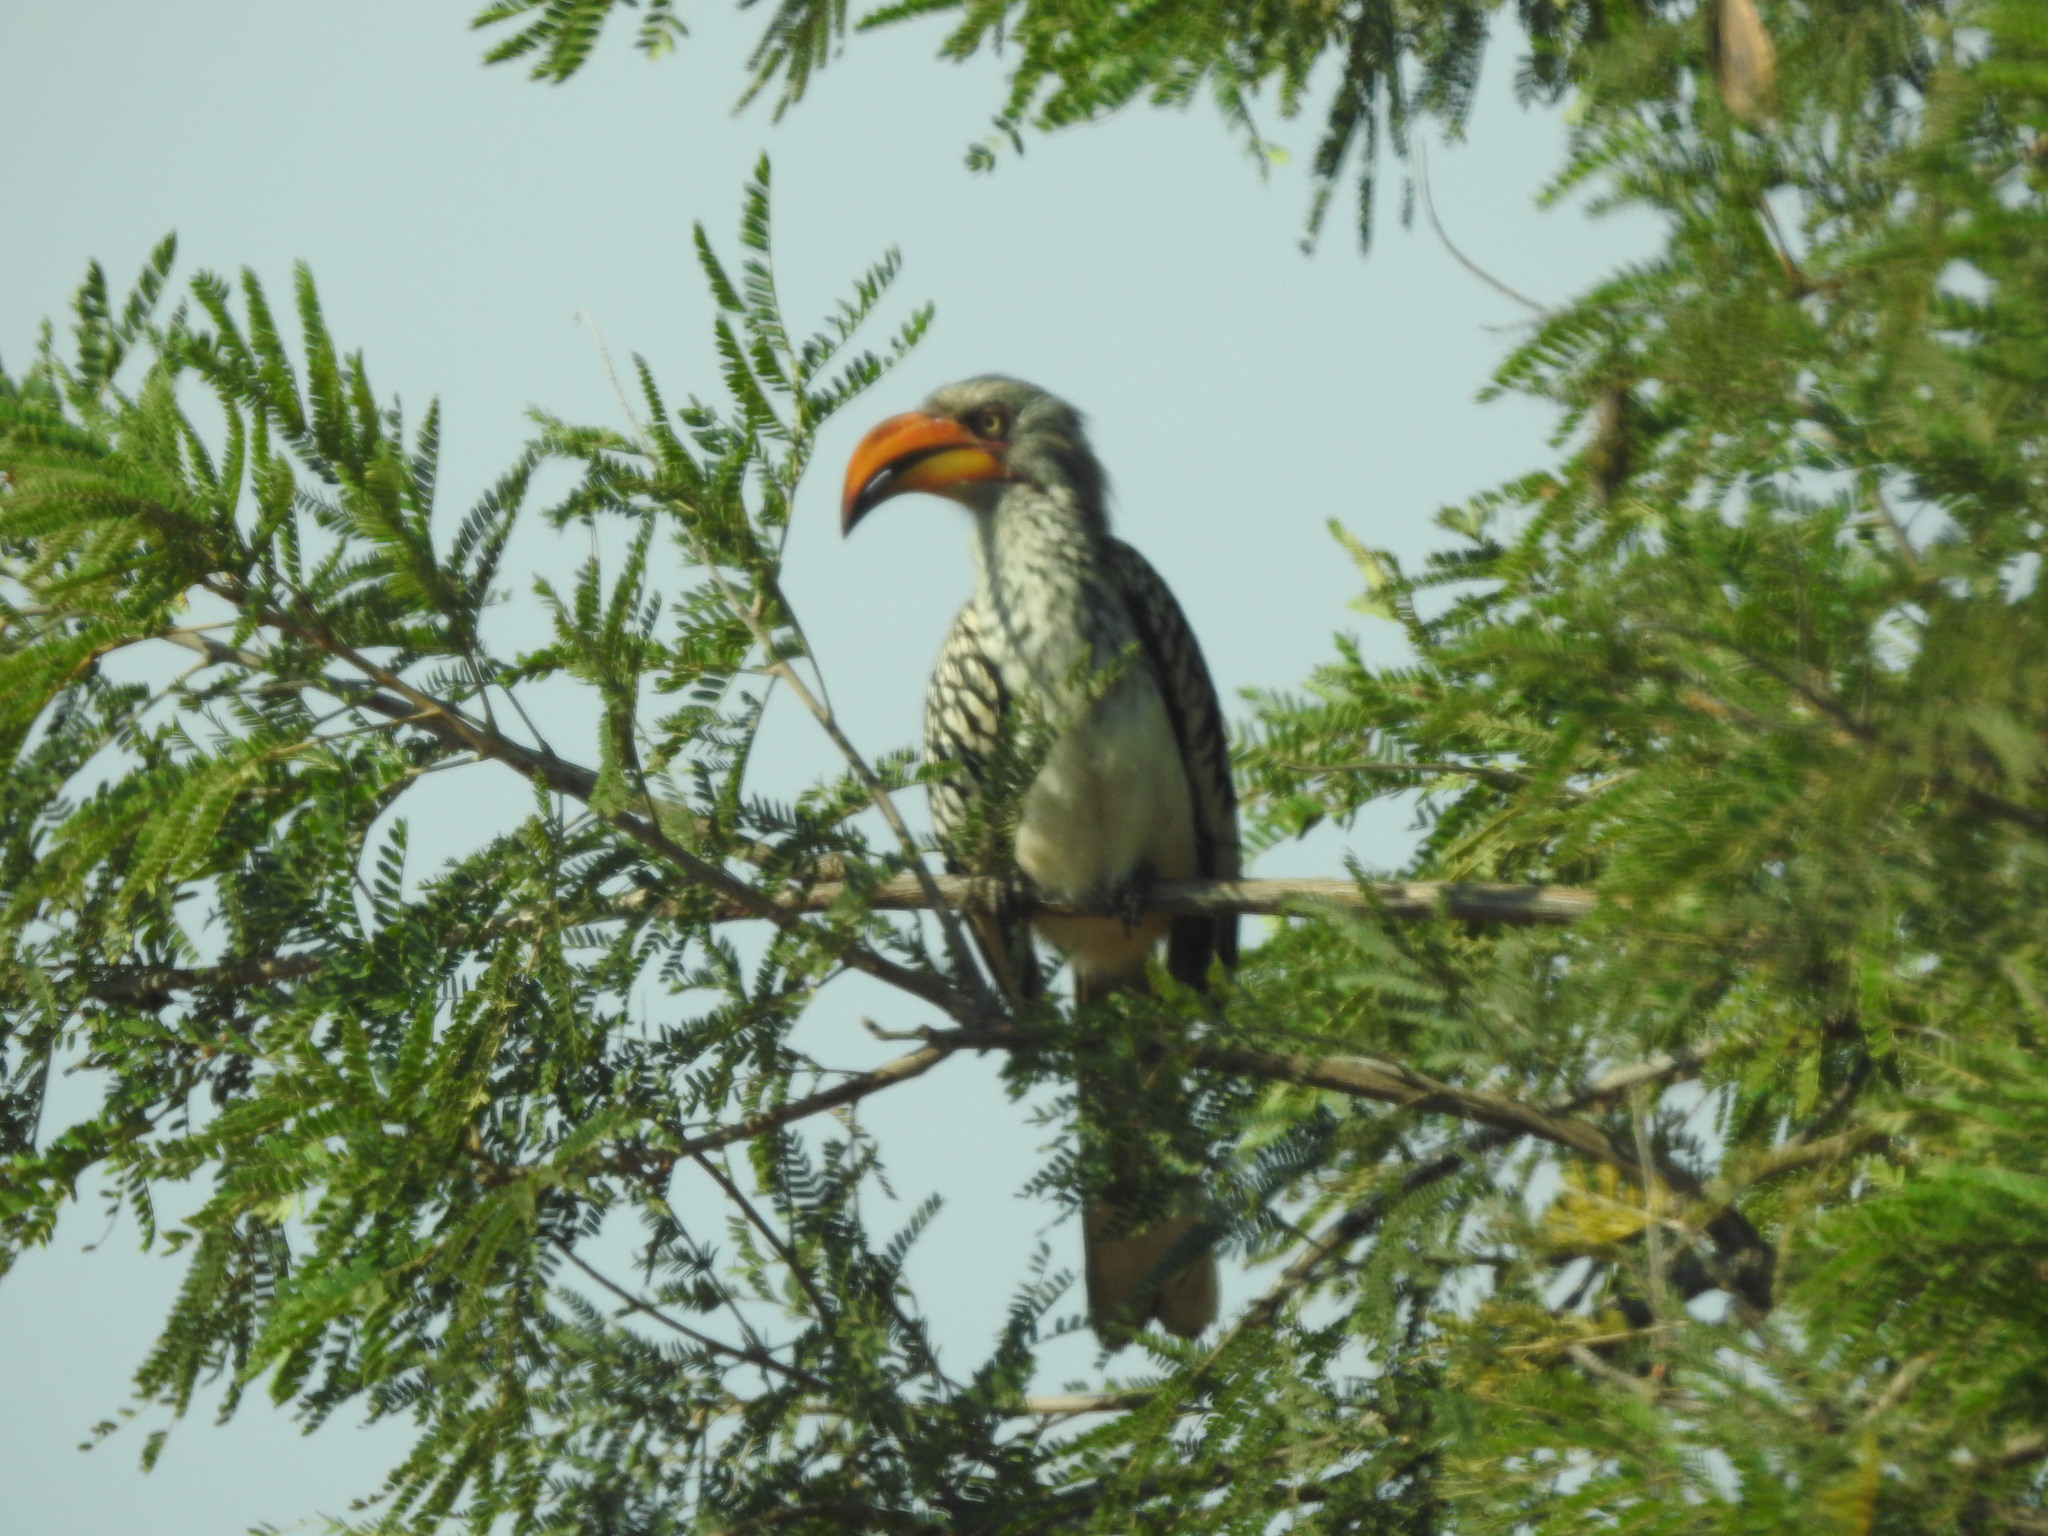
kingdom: Animalia
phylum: Chordata
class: Aves
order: Bucerotiformes
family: Bucerotidae
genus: Tockus
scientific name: Tockus leucomelas
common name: Southern yellow-billed hornbill
